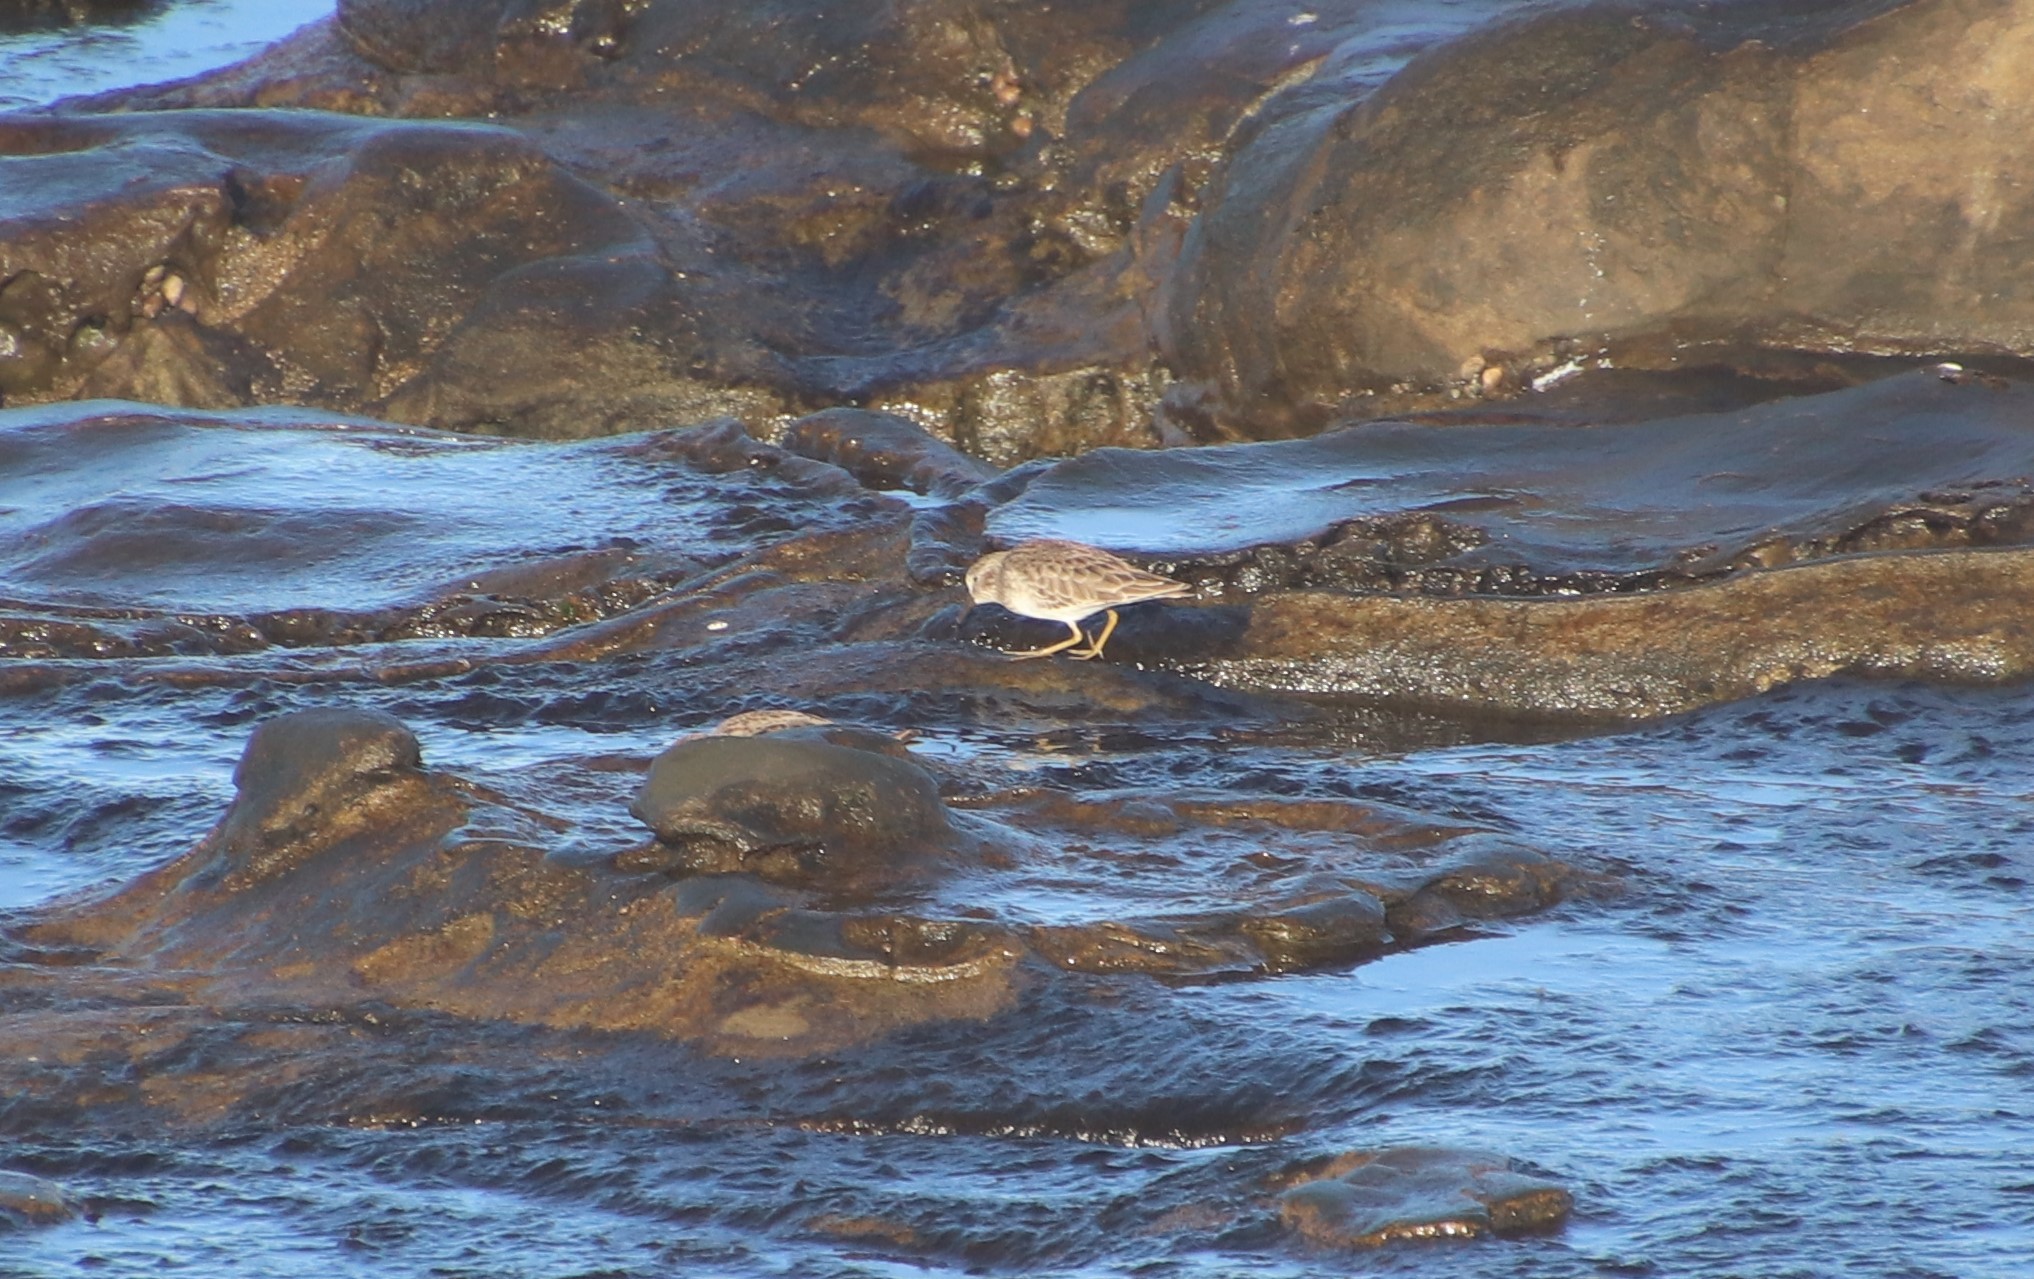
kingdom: Animalia
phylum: Chordata
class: Aves
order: Charadriiformes
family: Scolopacidae
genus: Calidris
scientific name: Calidris minutilla
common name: Least sandpiper
